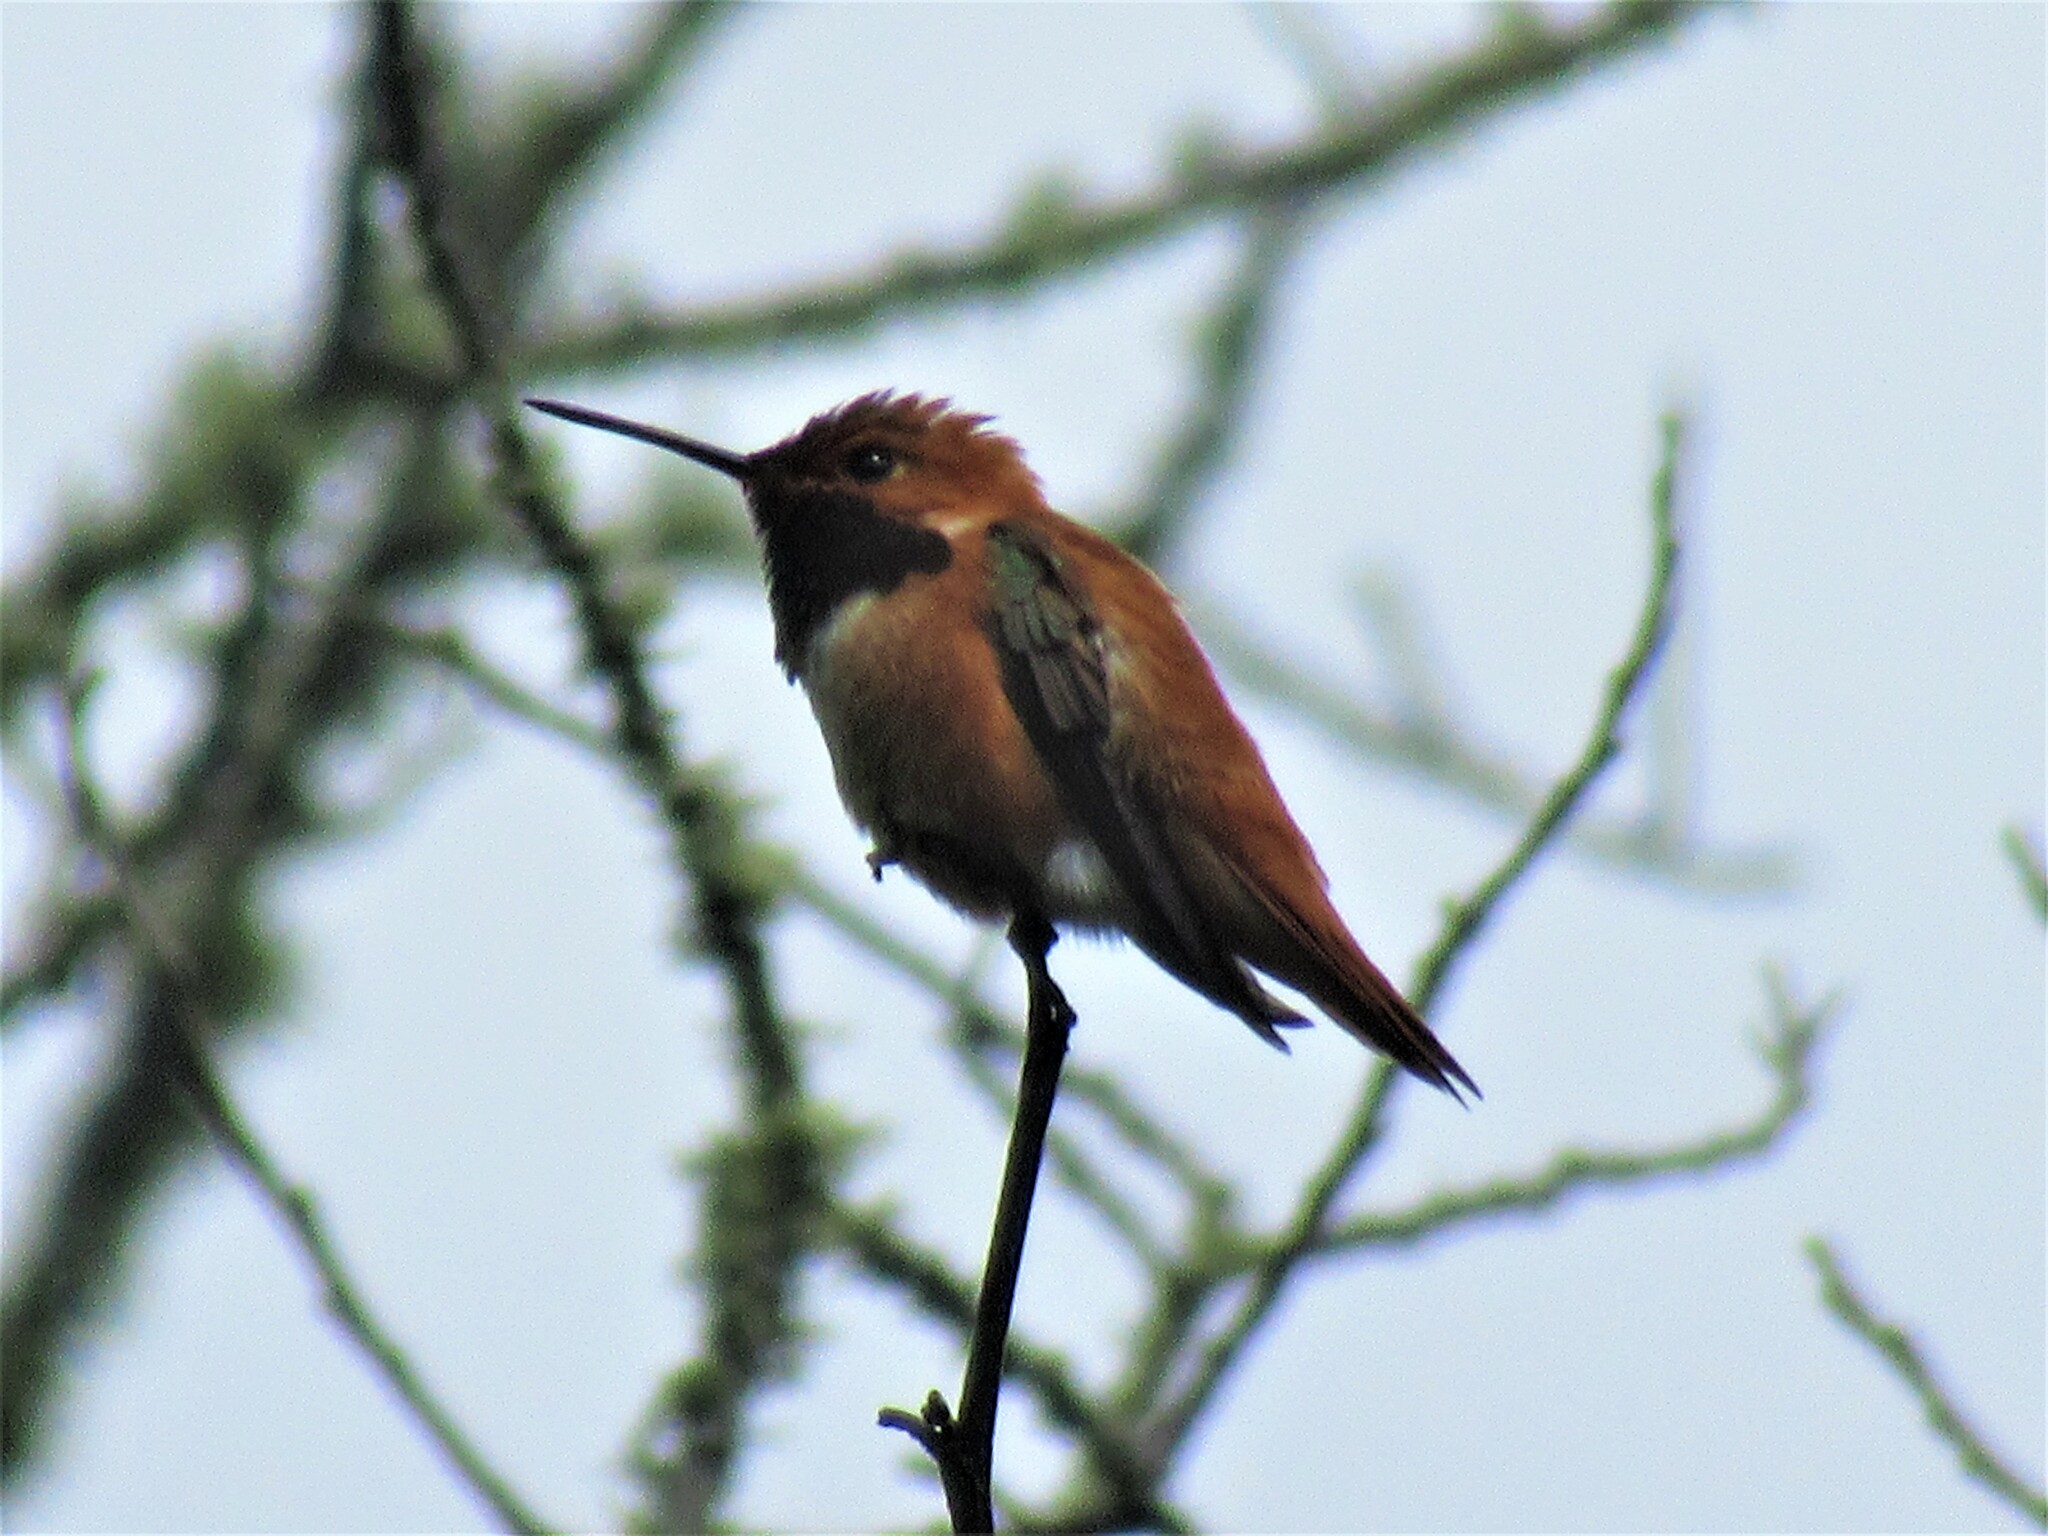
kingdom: Animalia
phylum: Chordata
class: Aves
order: Apodiformes
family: Trochilidae
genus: Selasphorus
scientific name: Selasphorus rufus
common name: Rufous hummingbird
